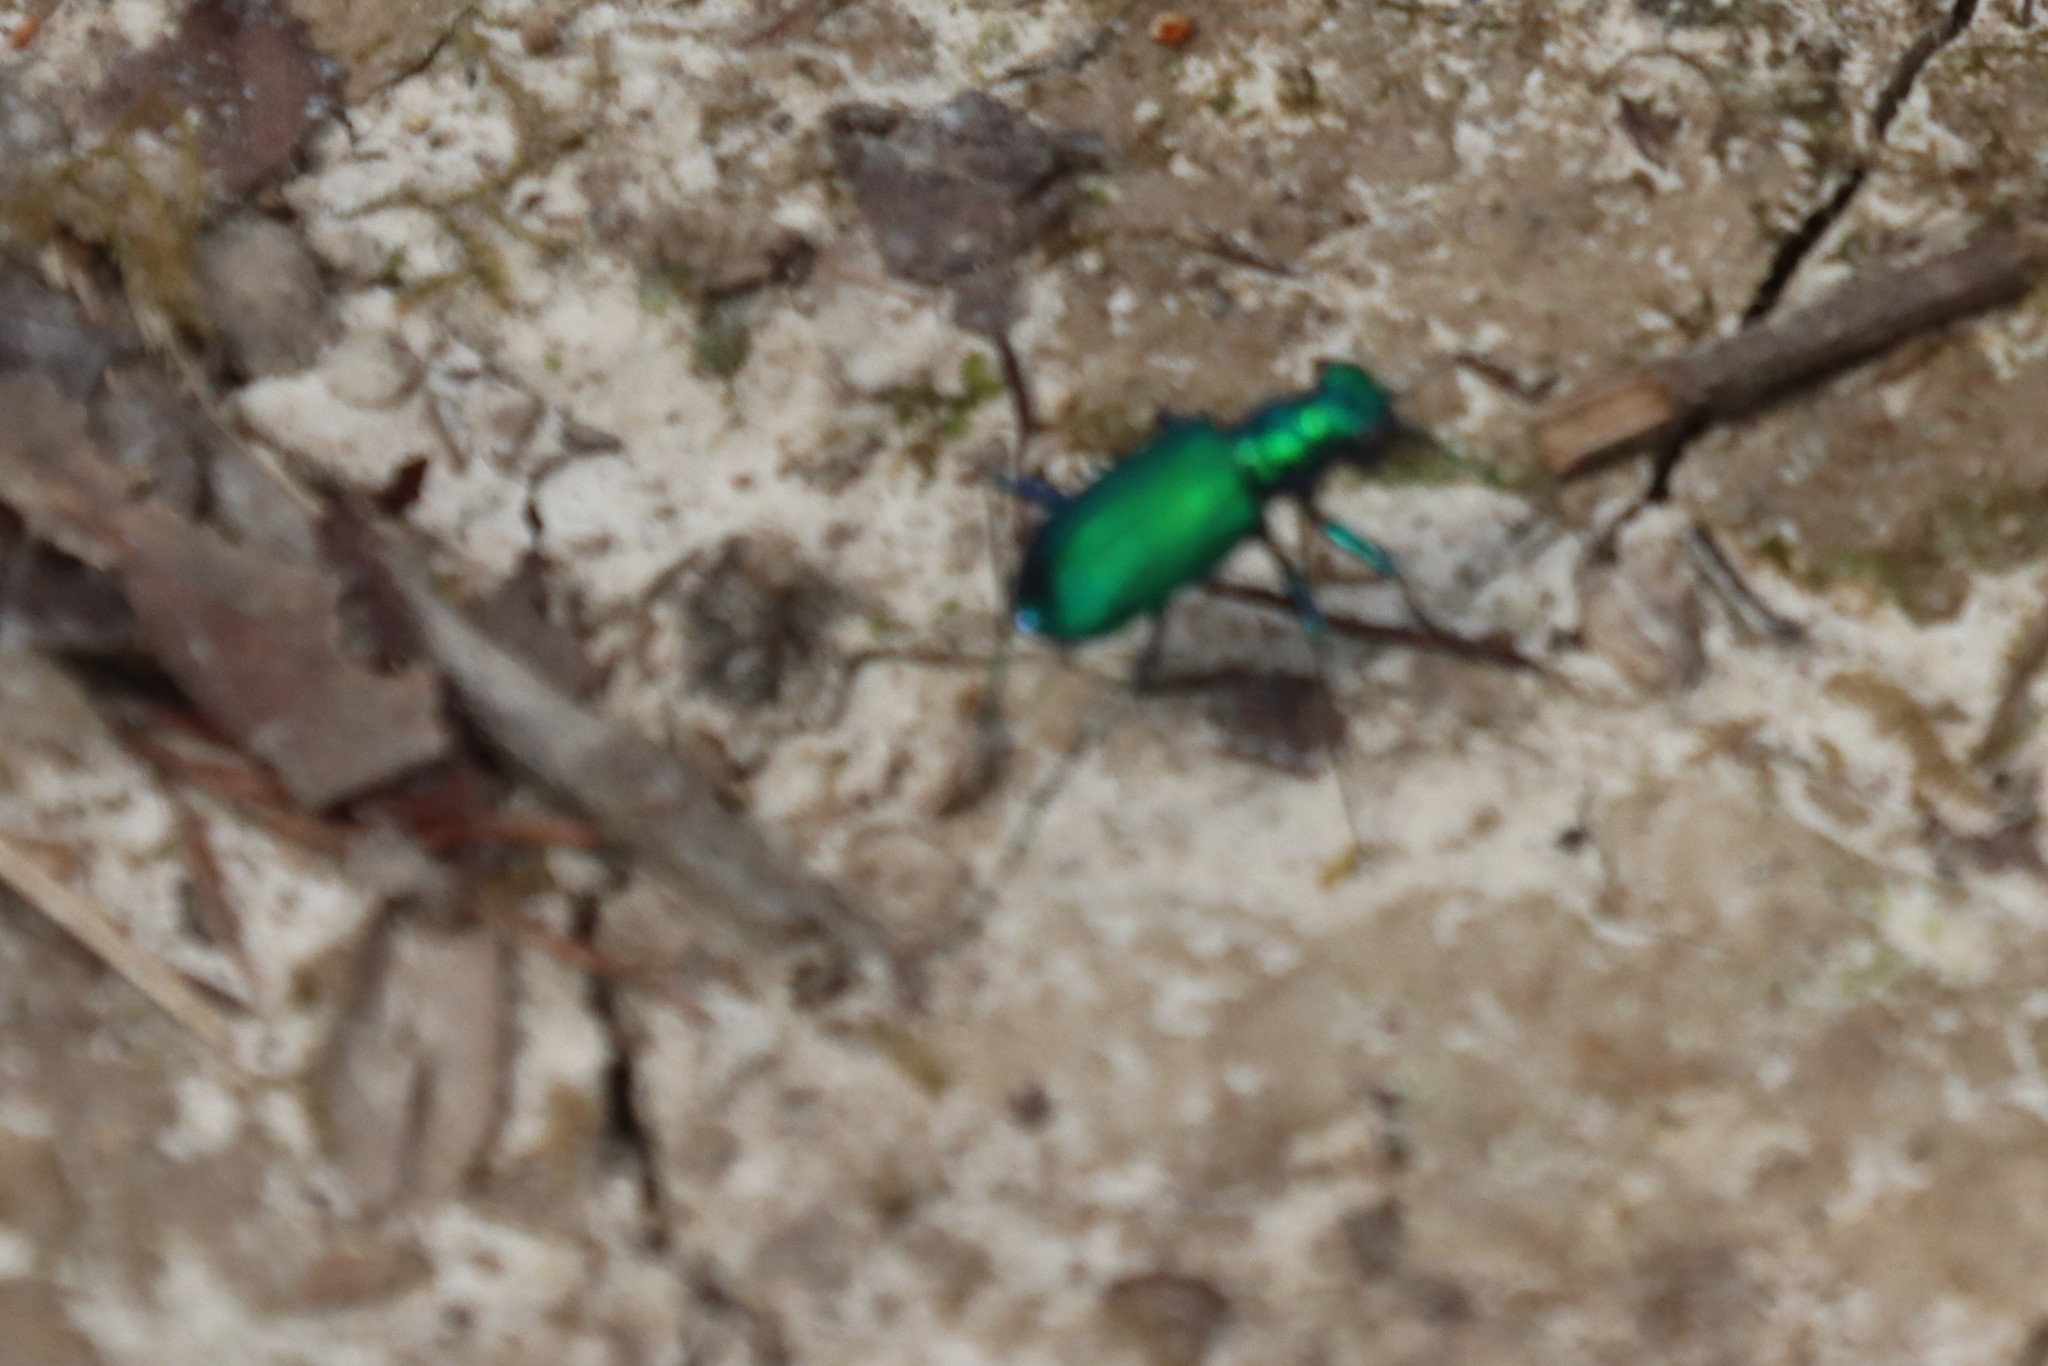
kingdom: Animalia
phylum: Arthropoda
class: Insecta
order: Coleoptera
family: Carabidae
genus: Cicindela
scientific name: Cicindela sexguttata
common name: Six-spotted tiger beetle
